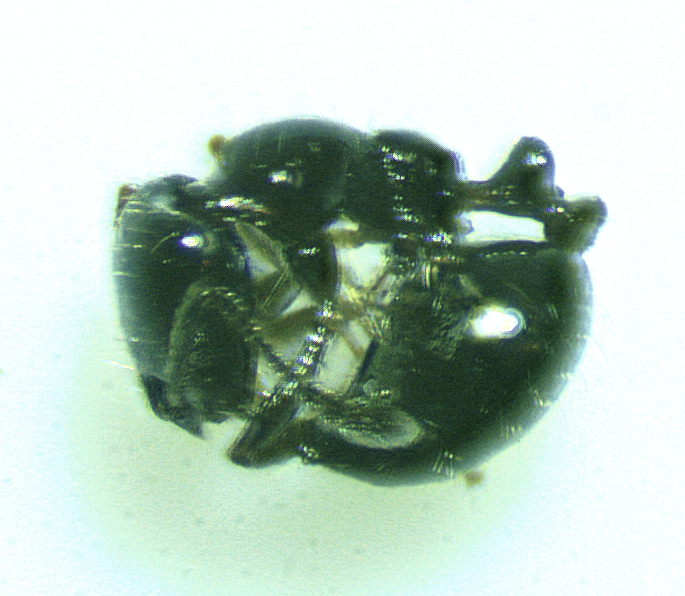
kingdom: Animalia
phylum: Arthropoda
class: Insecta
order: Hymenoptera
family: Formicidae
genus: Monomorium
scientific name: Monomorium minimum
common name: Little black ant
